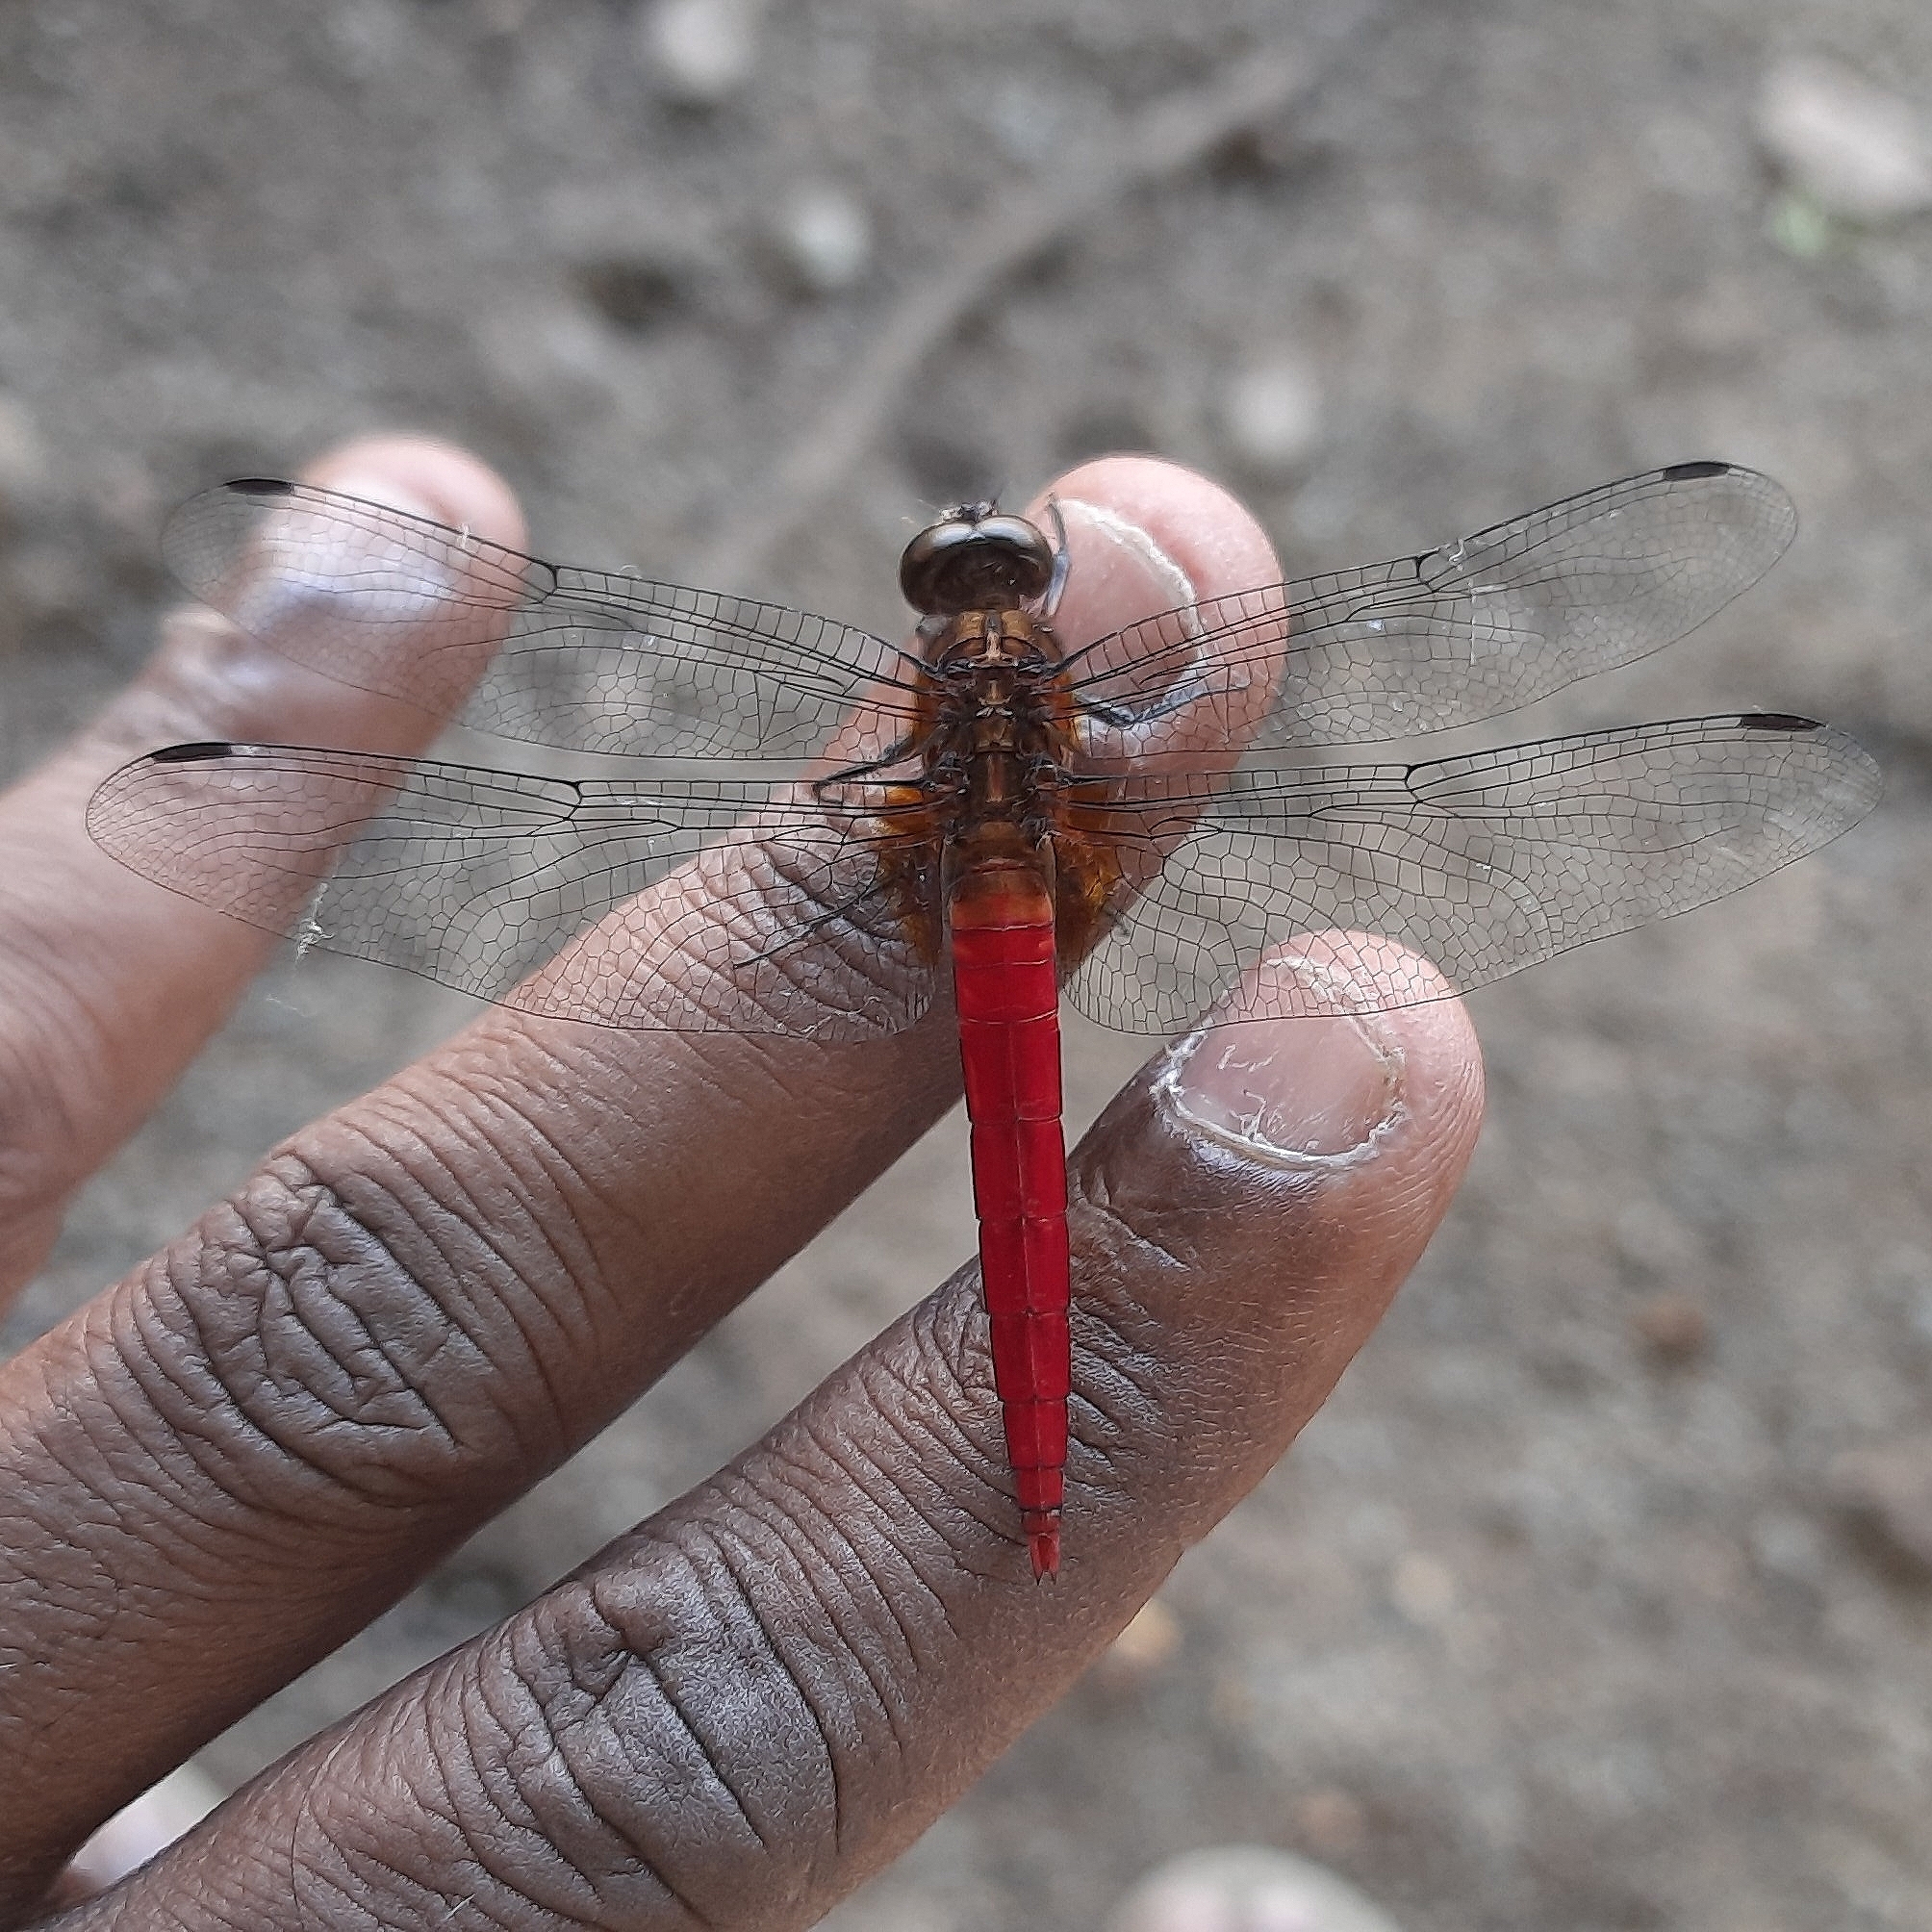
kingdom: Animalia
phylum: Arthropoda
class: Insecta
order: Odonata
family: Libellulidae
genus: Orthetrum
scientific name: Orthetrum chrysis
